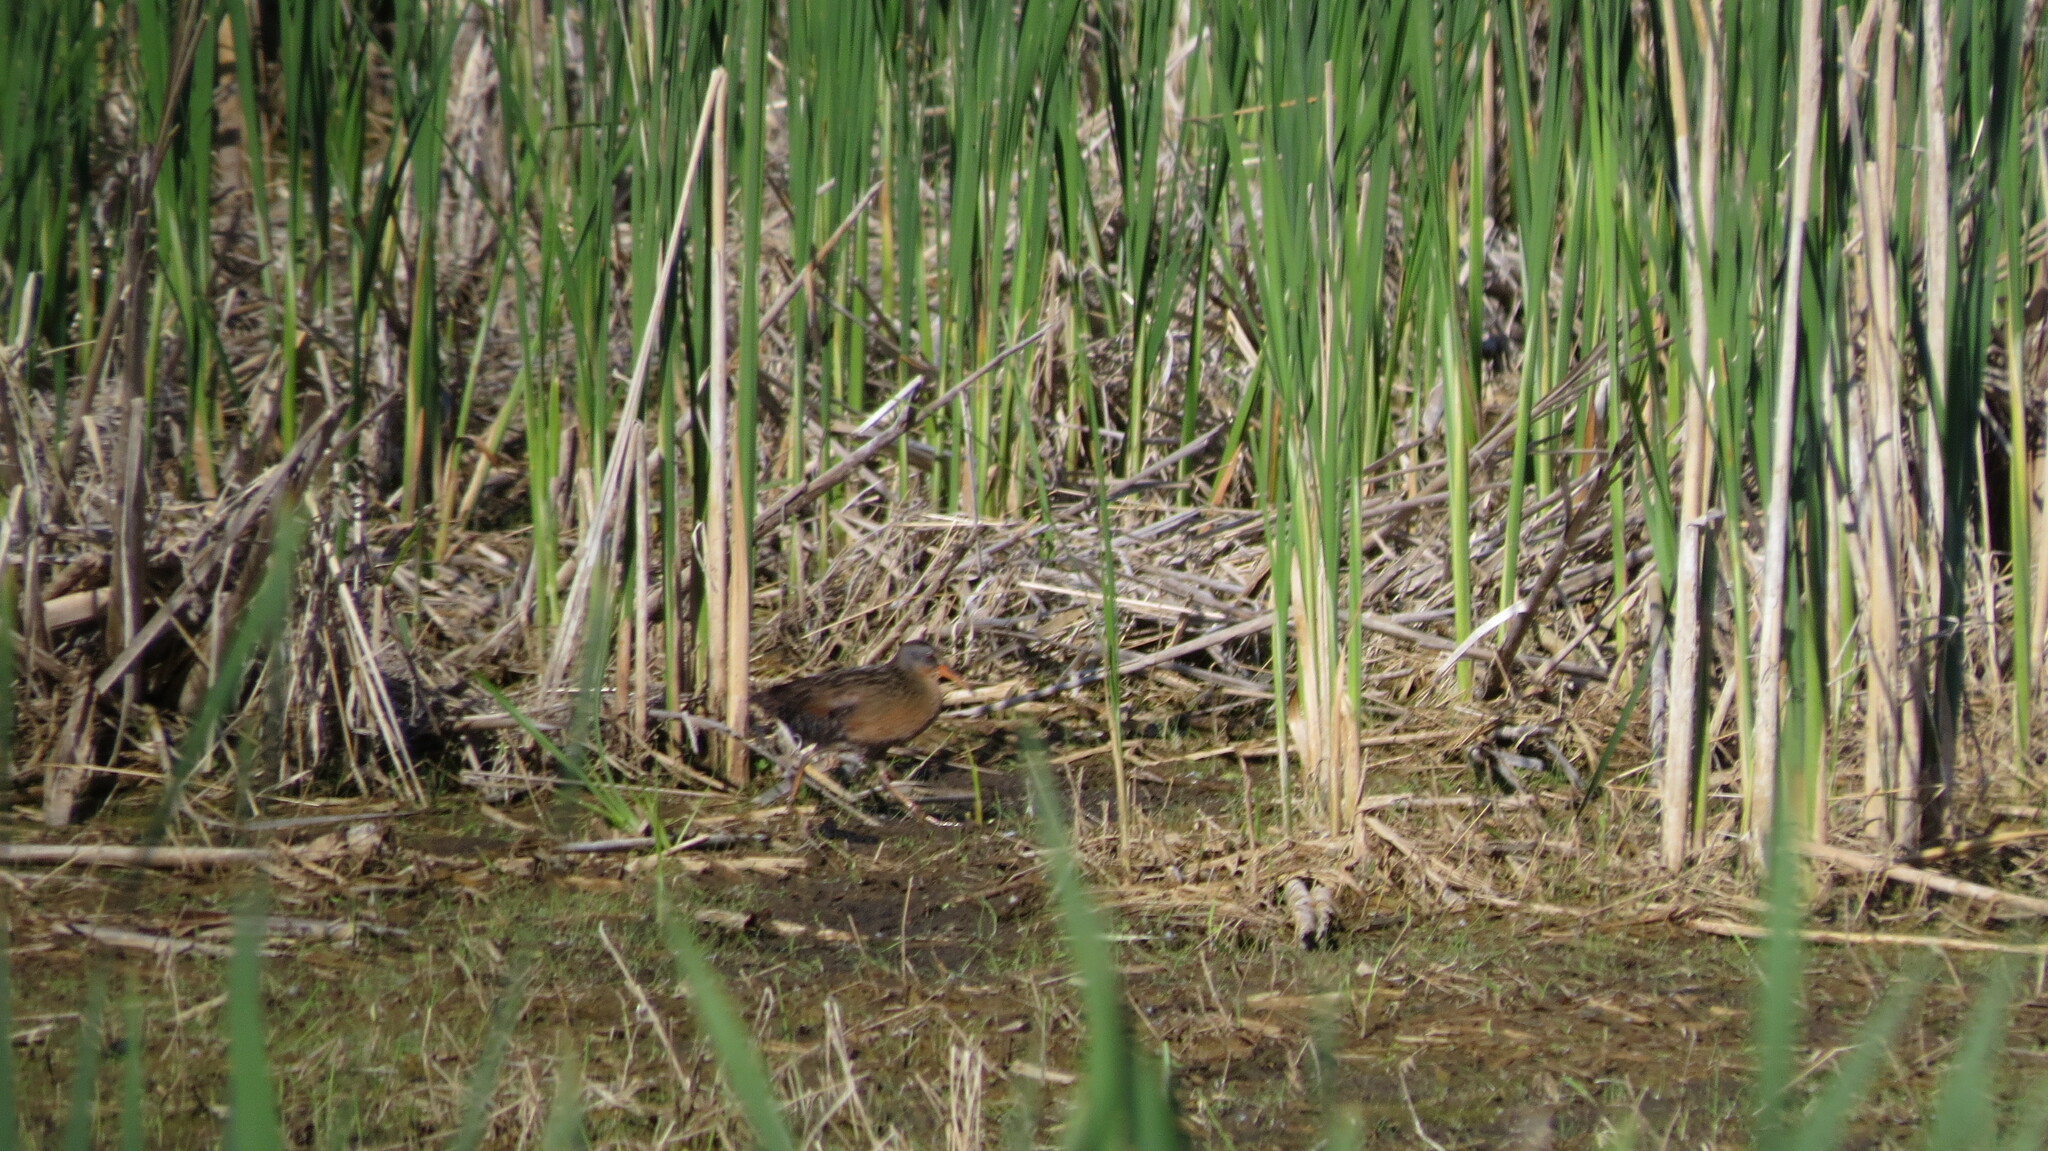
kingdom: Animalia
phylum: Chordata
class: Aves
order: Gruiformes
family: Rallidae
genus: Rallus
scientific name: Rallus limicola
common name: Virginia rail
